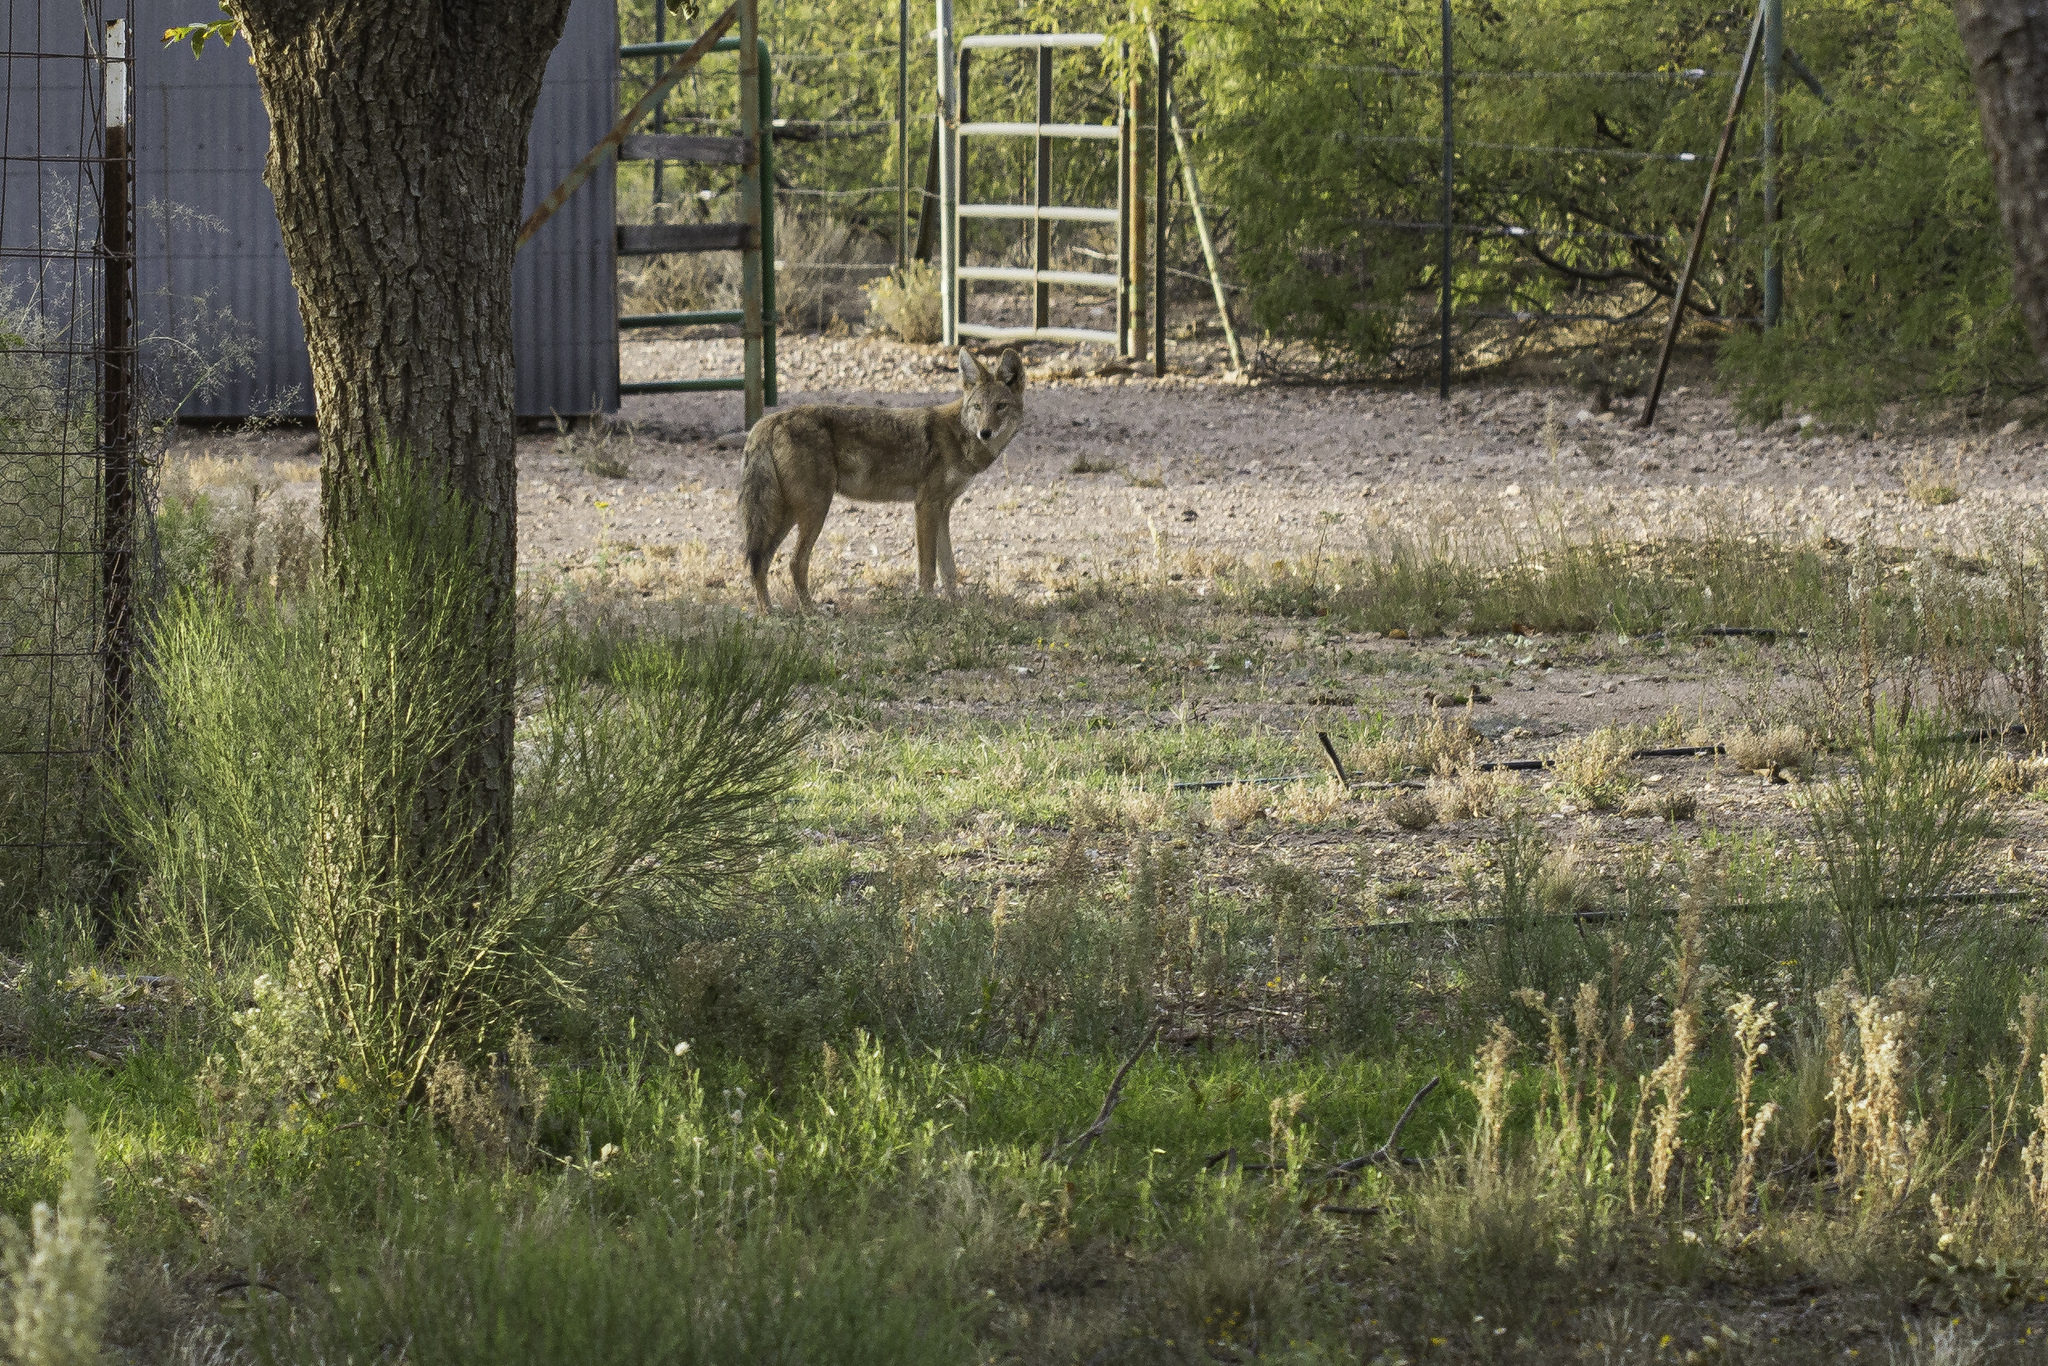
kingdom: Animalia
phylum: Chordata
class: Mammalia
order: Carnivora
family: Canidae
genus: Canis
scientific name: Canis latrans
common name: Coyote
